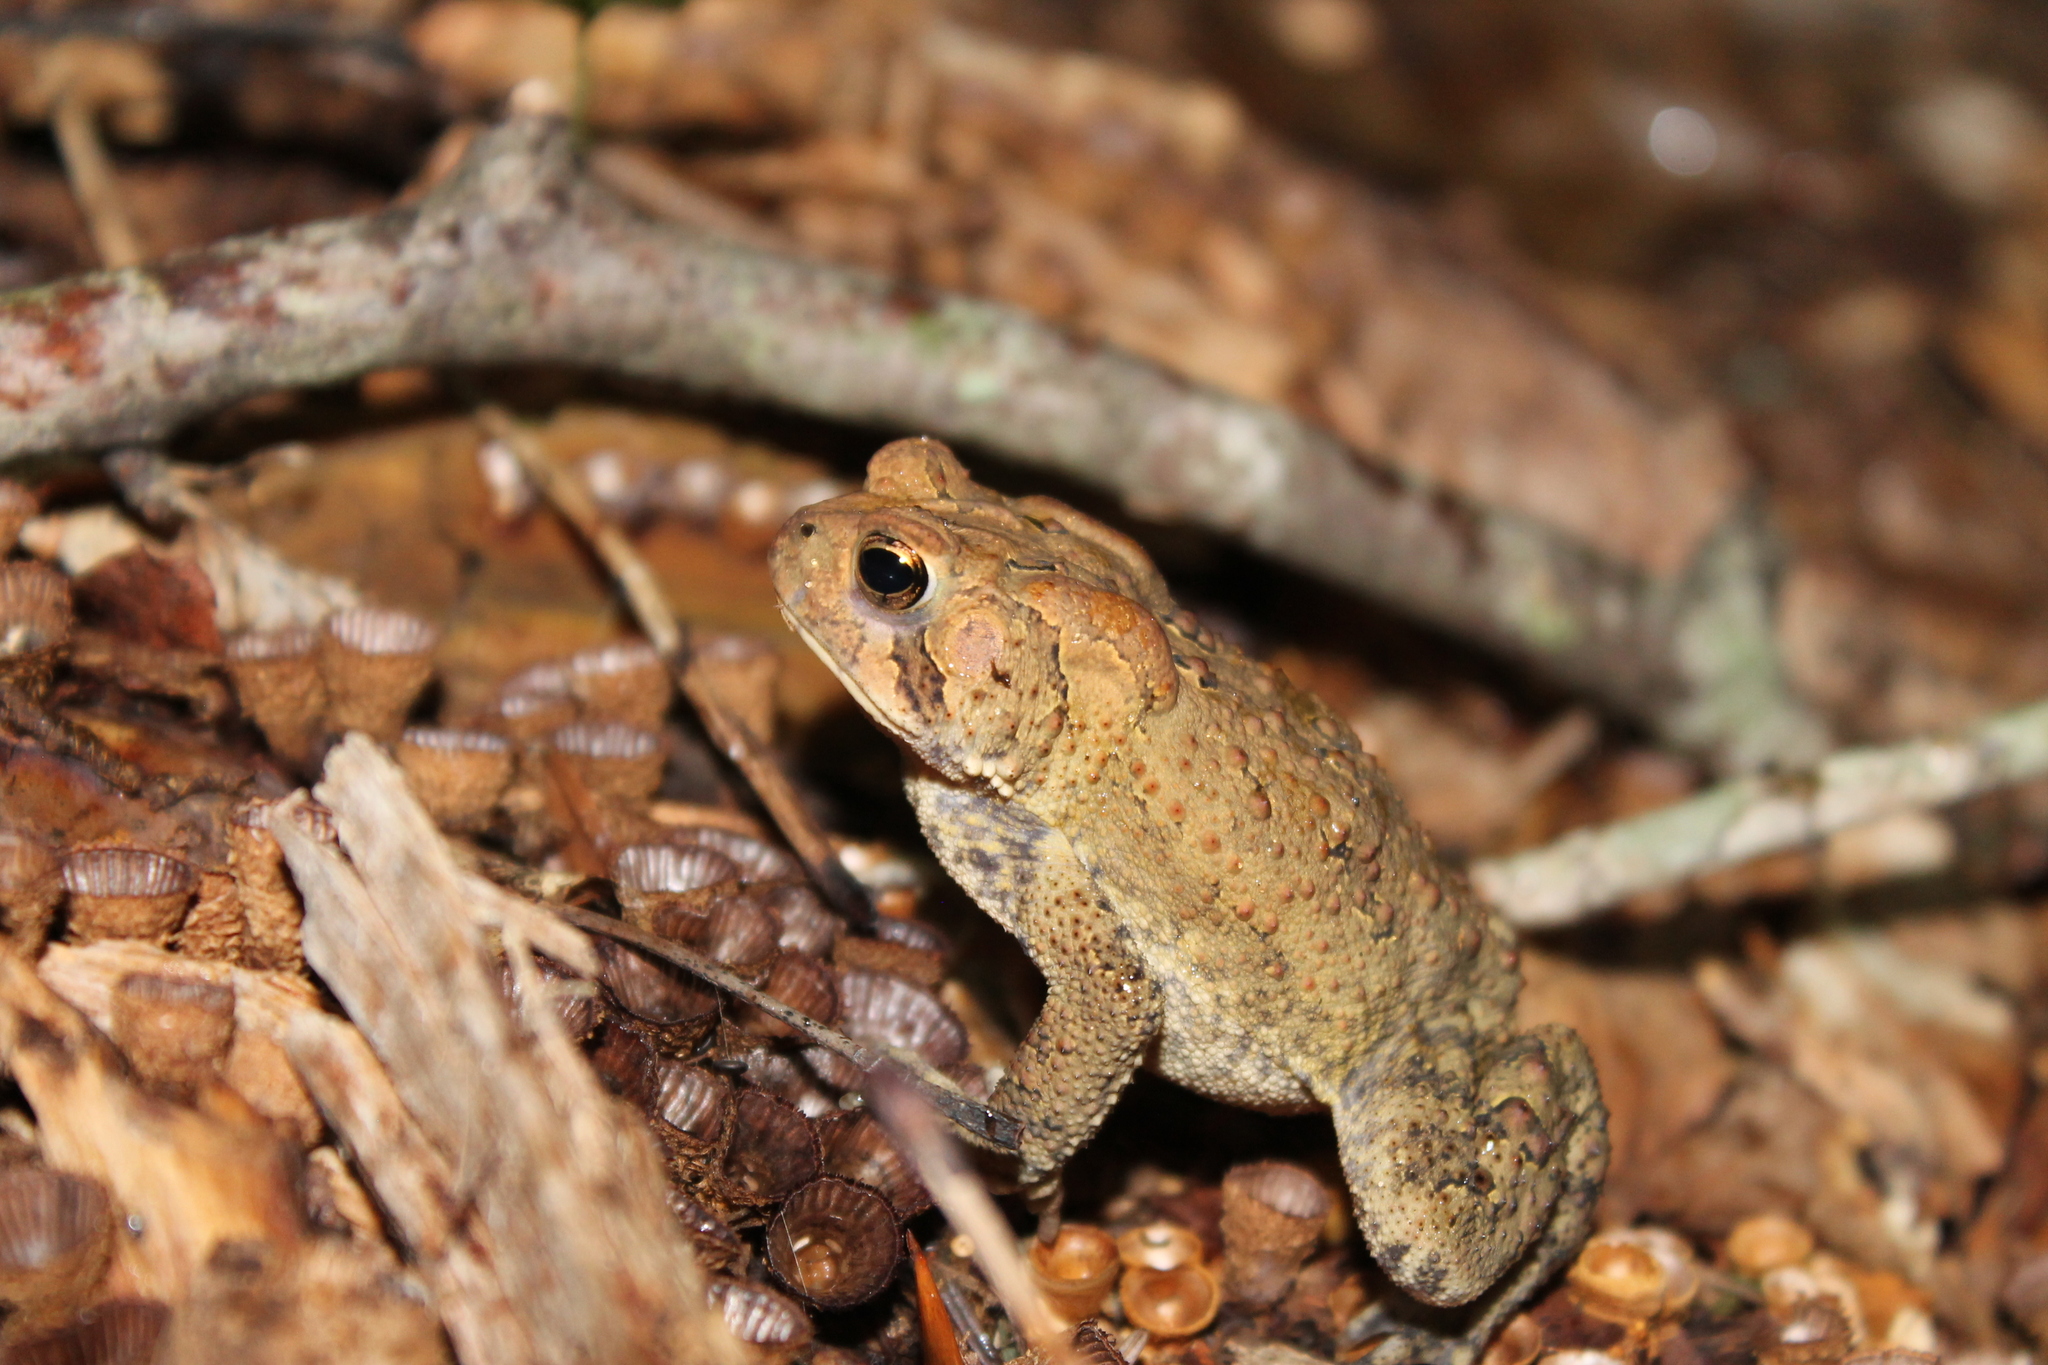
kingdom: Animalia
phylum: Chordata
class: Amphibia
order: Anura
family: Bufonidae
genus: Anaxyrus
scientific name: Anaxyrus americanus
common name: American toad
